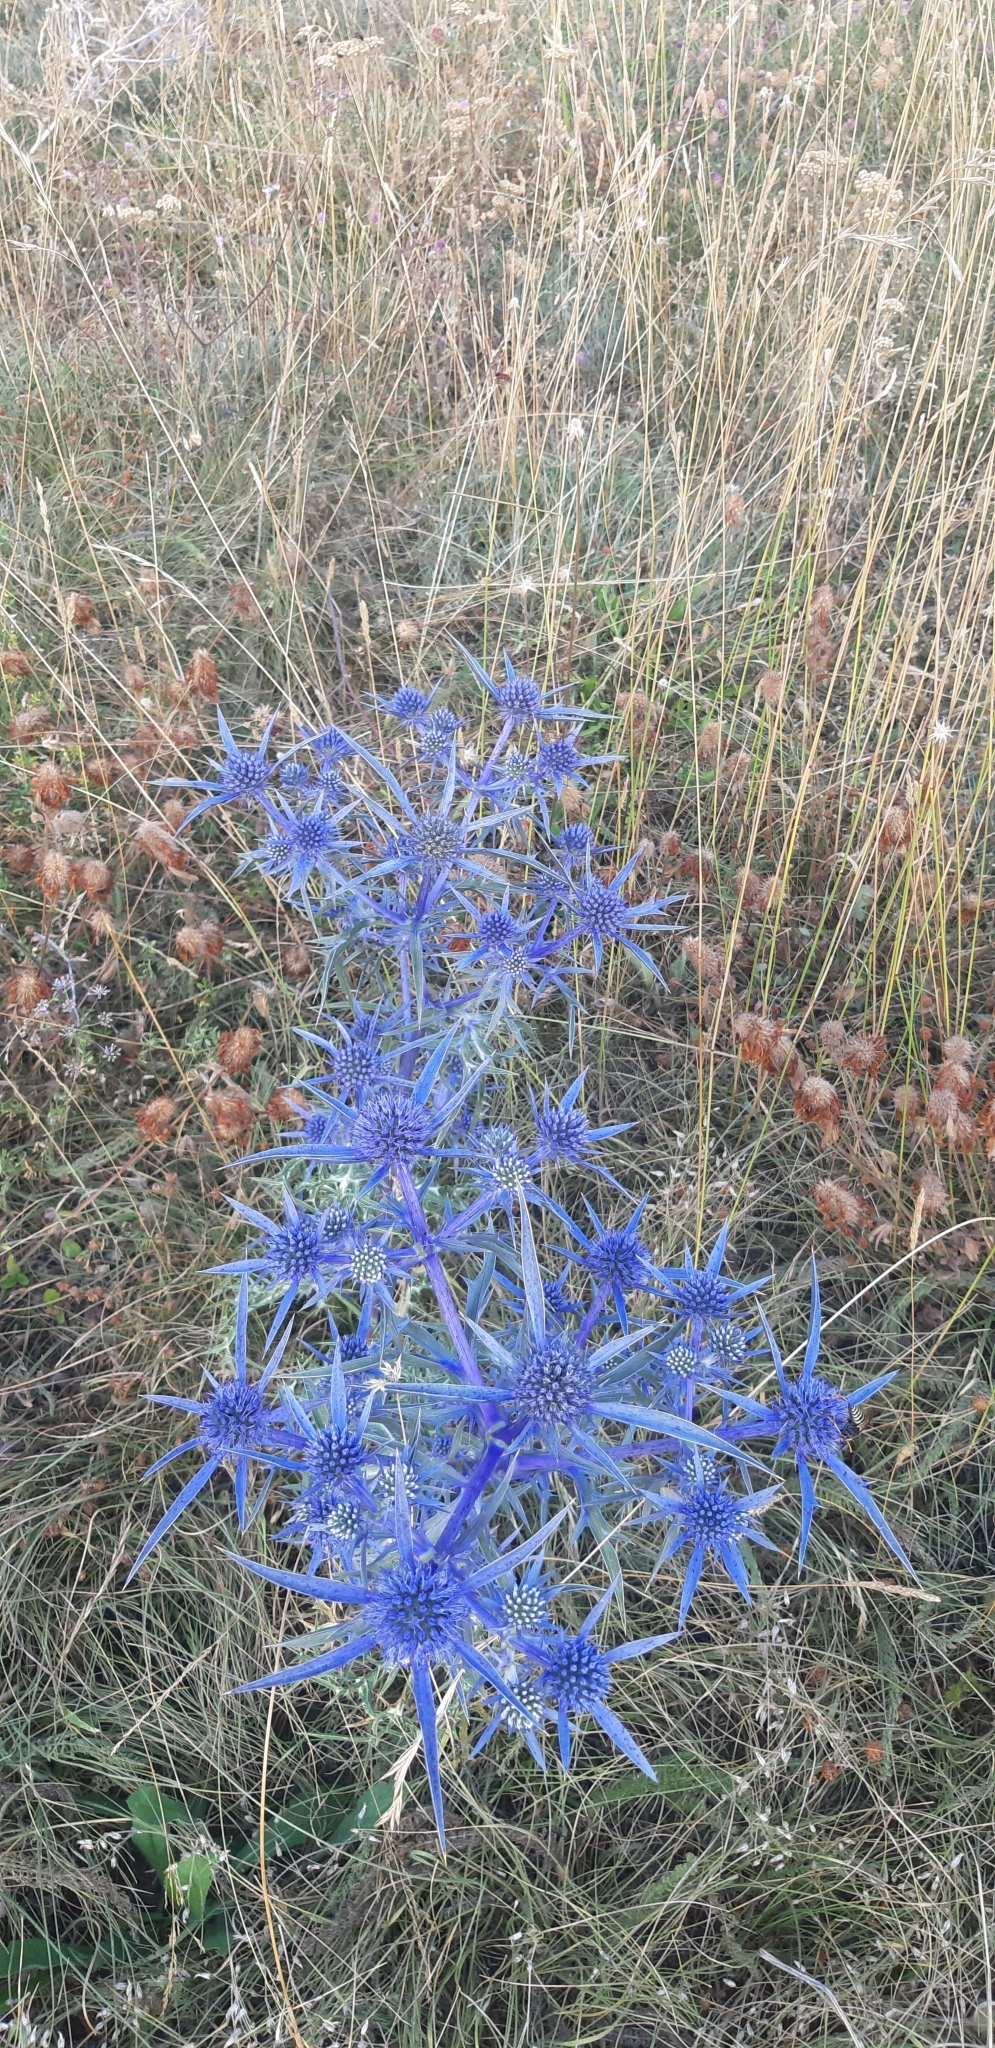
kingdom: Plantae
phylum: Tracheophyta
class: Magnoliopsida
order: Apiales
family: Apiaceae
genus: Eryngium
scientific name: Eryngium amethystinum
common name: Amethyst eryngo
